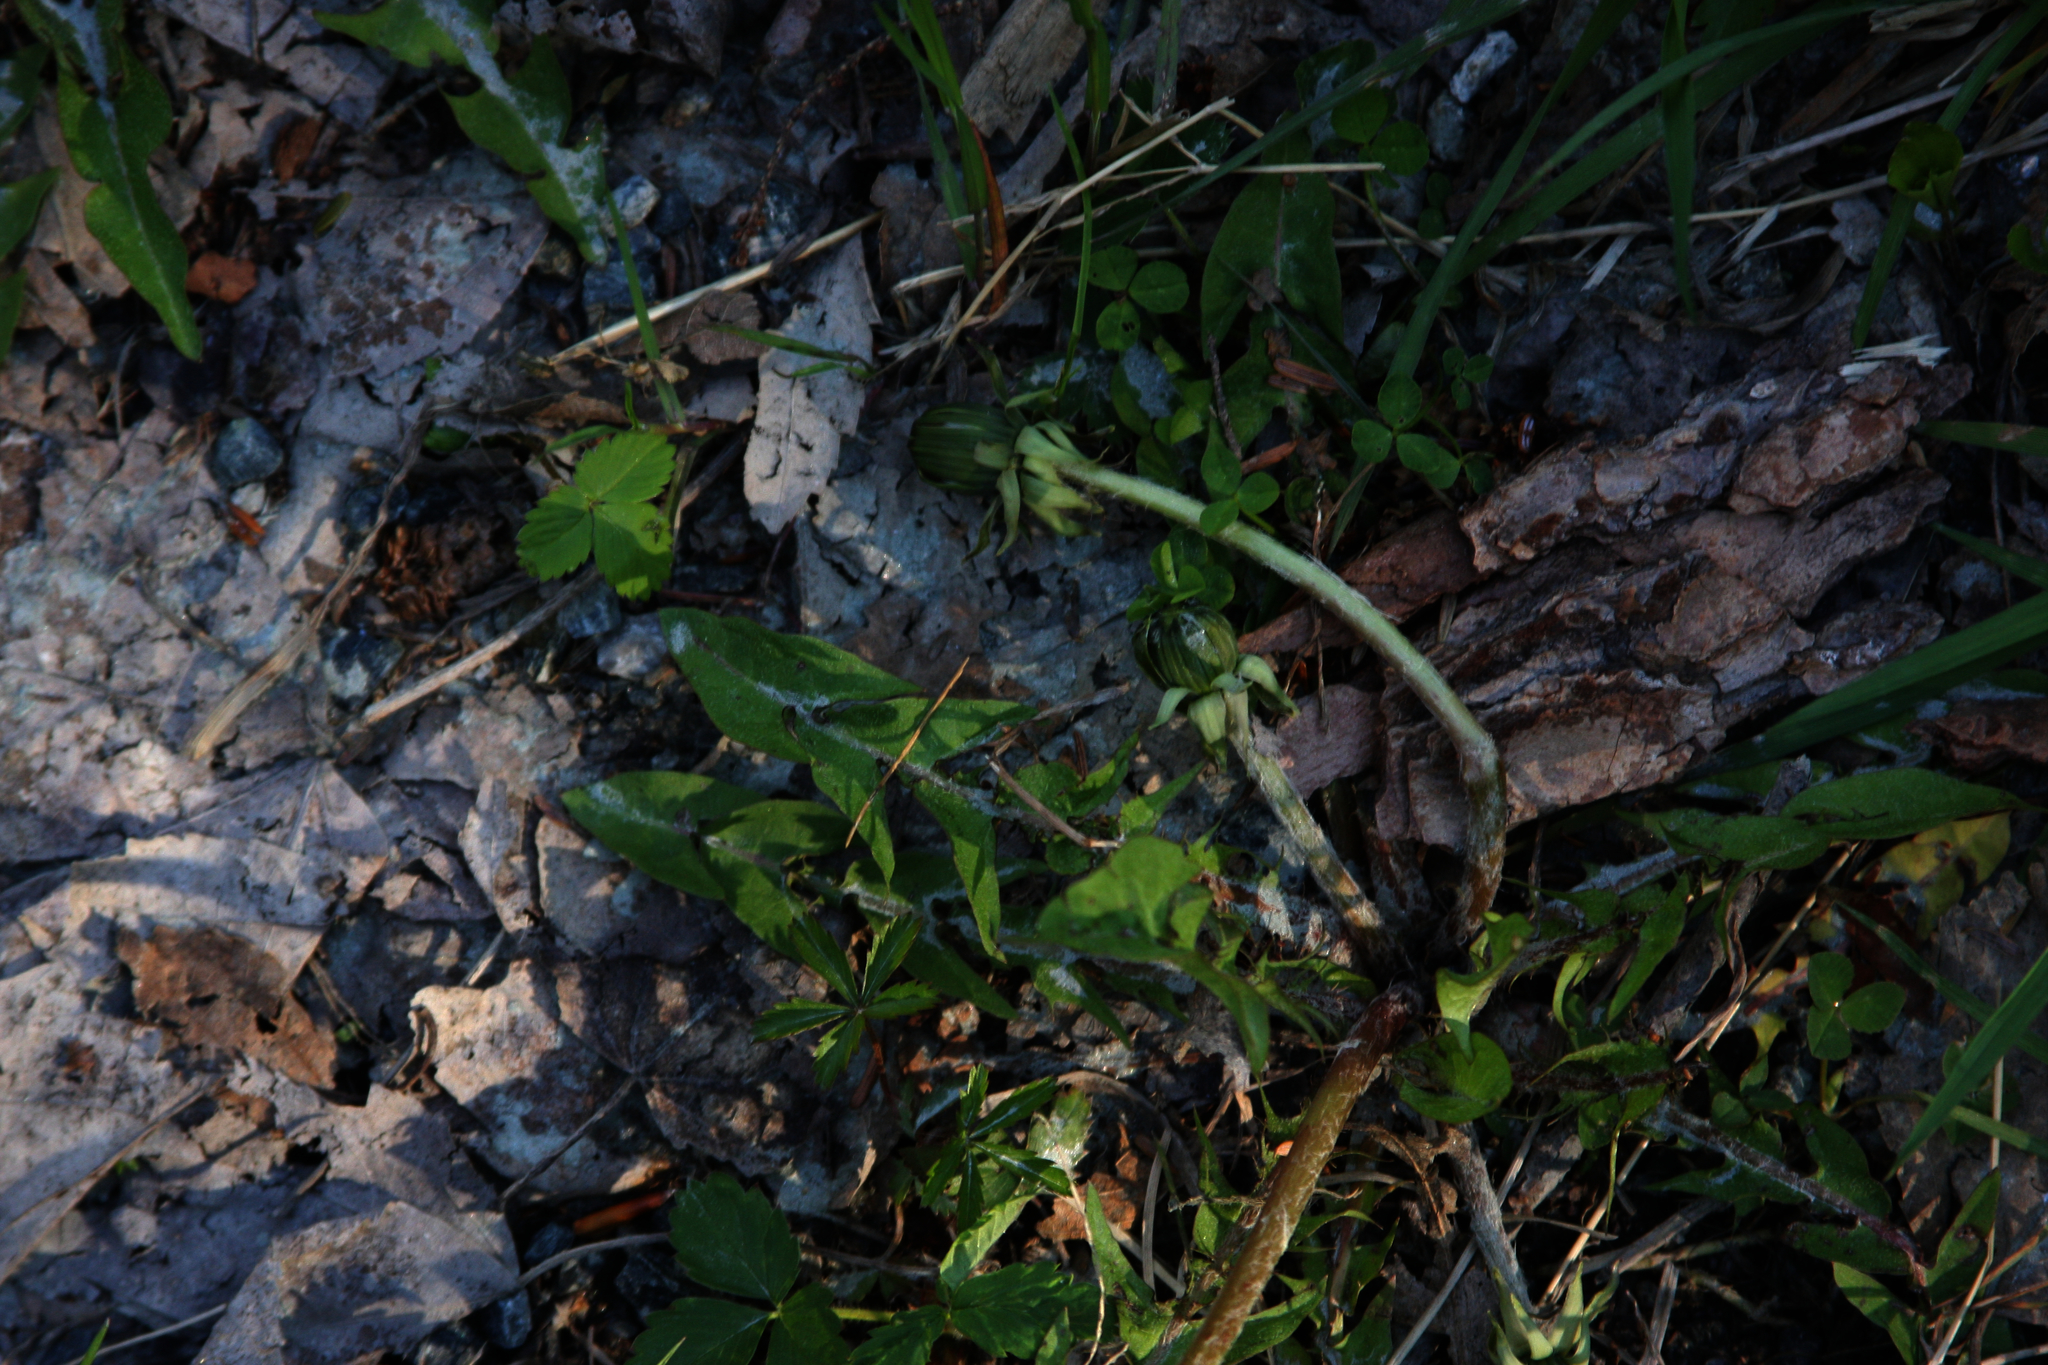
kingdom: Plantae
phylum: Tracheophyta
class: Magnoliopsida
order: Asterales
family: Asteraceae
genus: Taraxacum
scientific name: Taraxacum officinale
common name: Common dandelion
